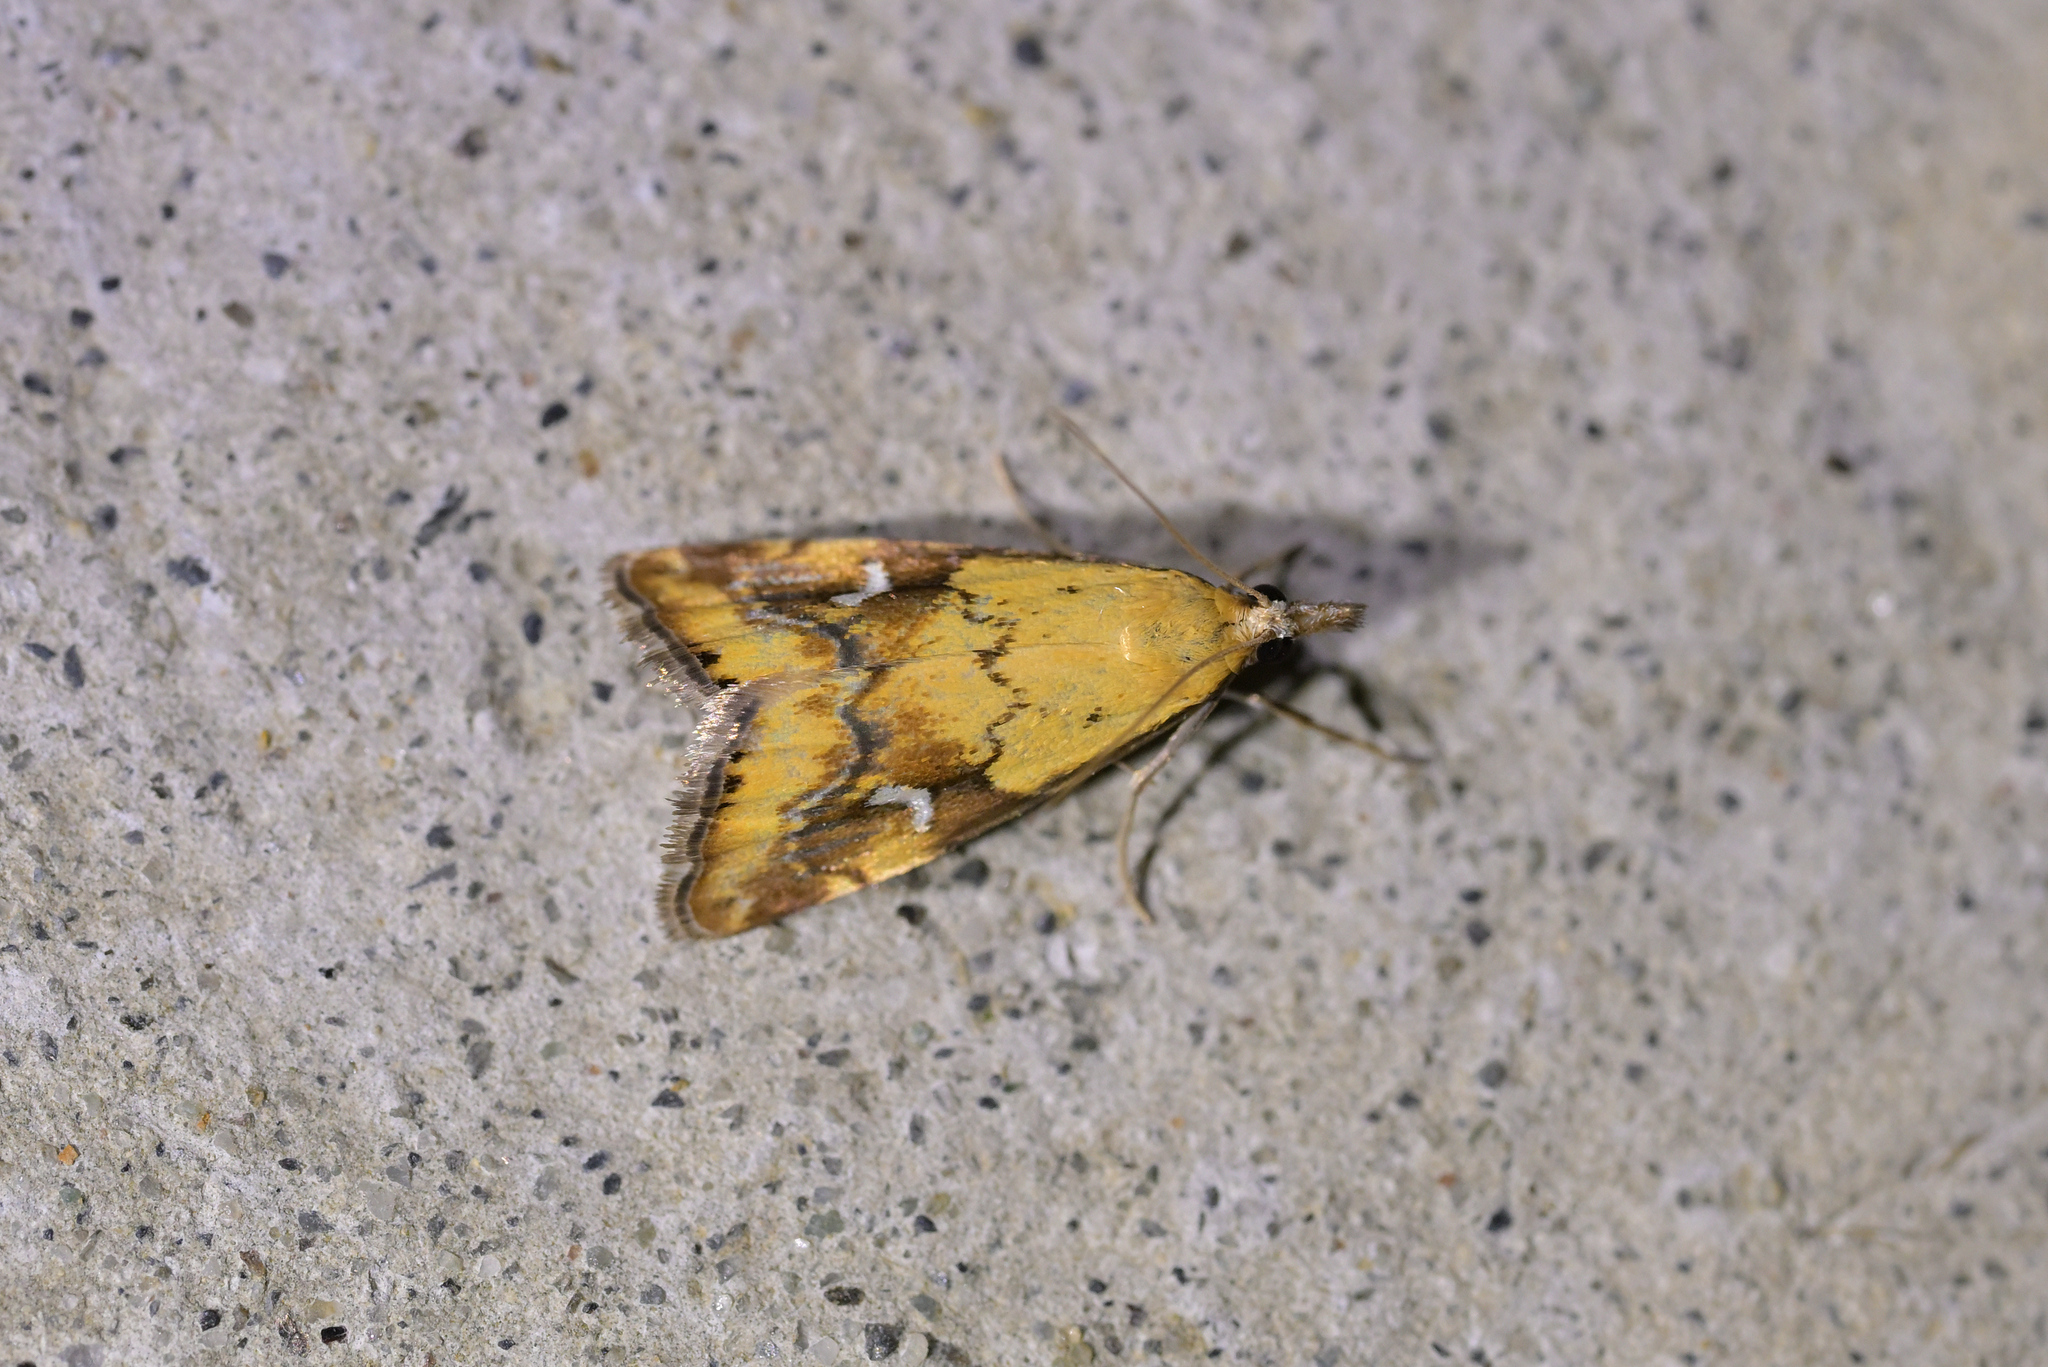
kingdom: Animalia
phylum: Arthropoda
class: Insecta
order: Lepidoptera
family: Crambidae
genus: Glaucocharis
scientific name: Glaucocharis lepidella
